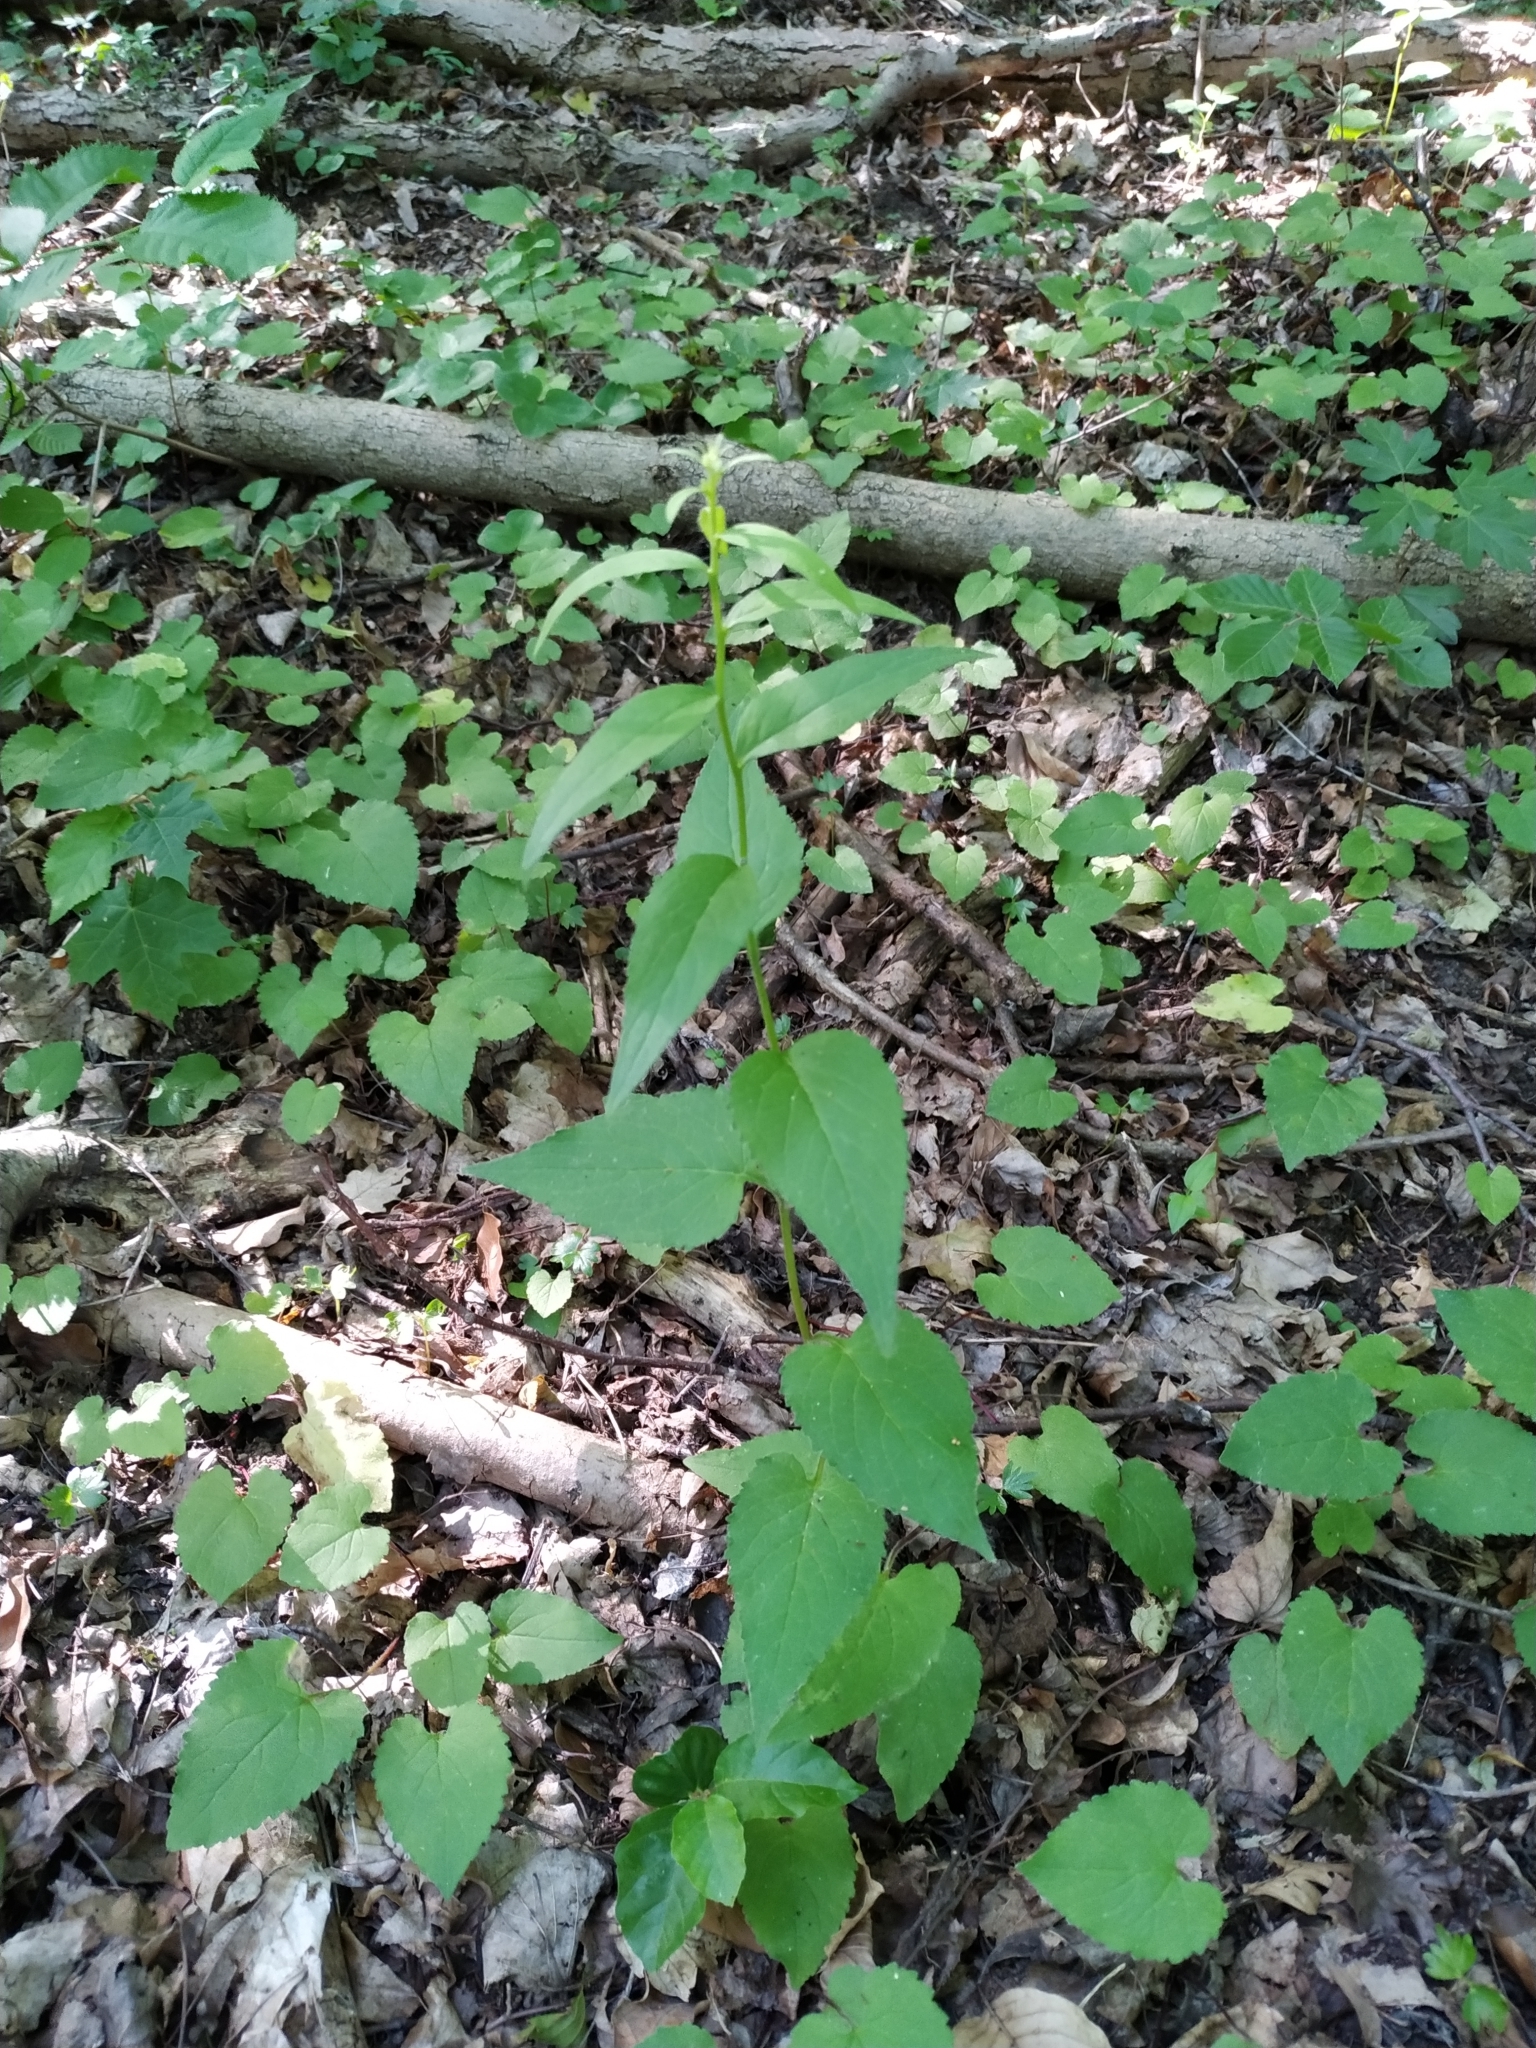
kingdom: Plantae
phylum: Tracheophyta
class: Magnoliopsida
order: Asterales
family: Campanulaceae
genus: Campanula
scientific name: Campanula trachelium
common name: Nettle-leaved bellflower
